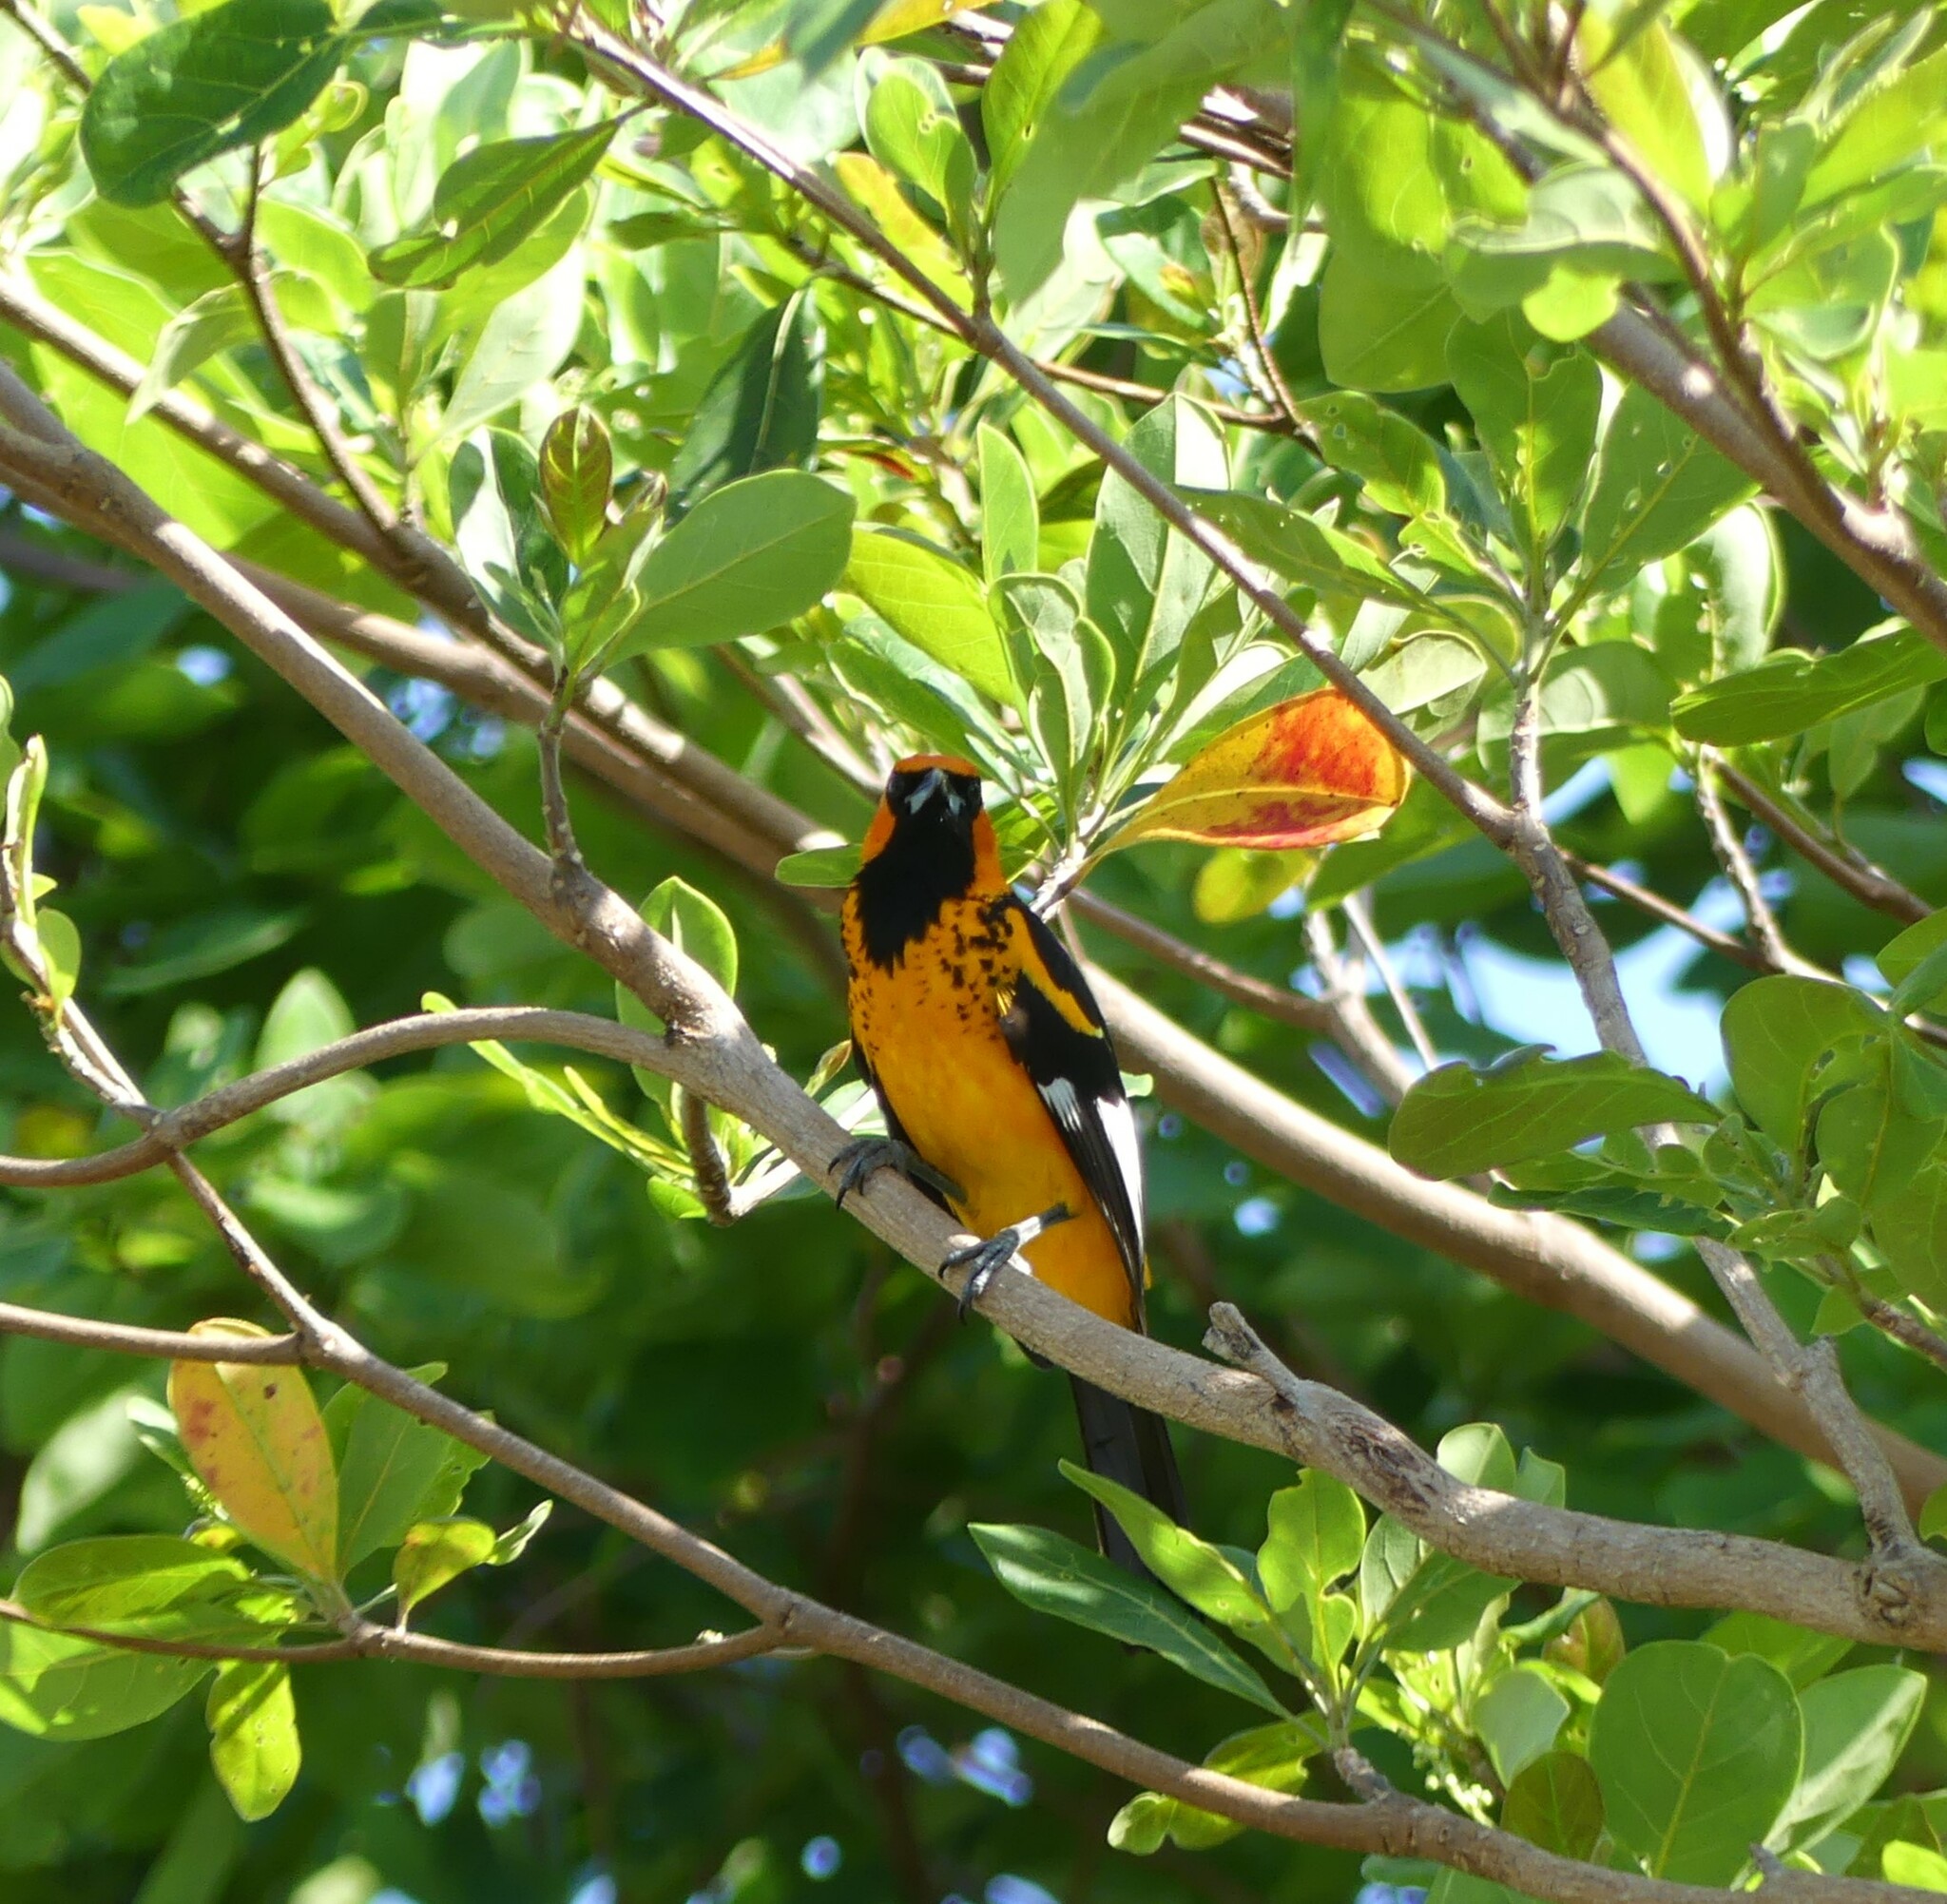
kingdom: Animalia
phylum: Chordata
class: Aves
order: Passeriformes
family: Icteridae
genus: Icterus
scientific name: Icterus pectoralis
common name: Spot-breasted oriole
